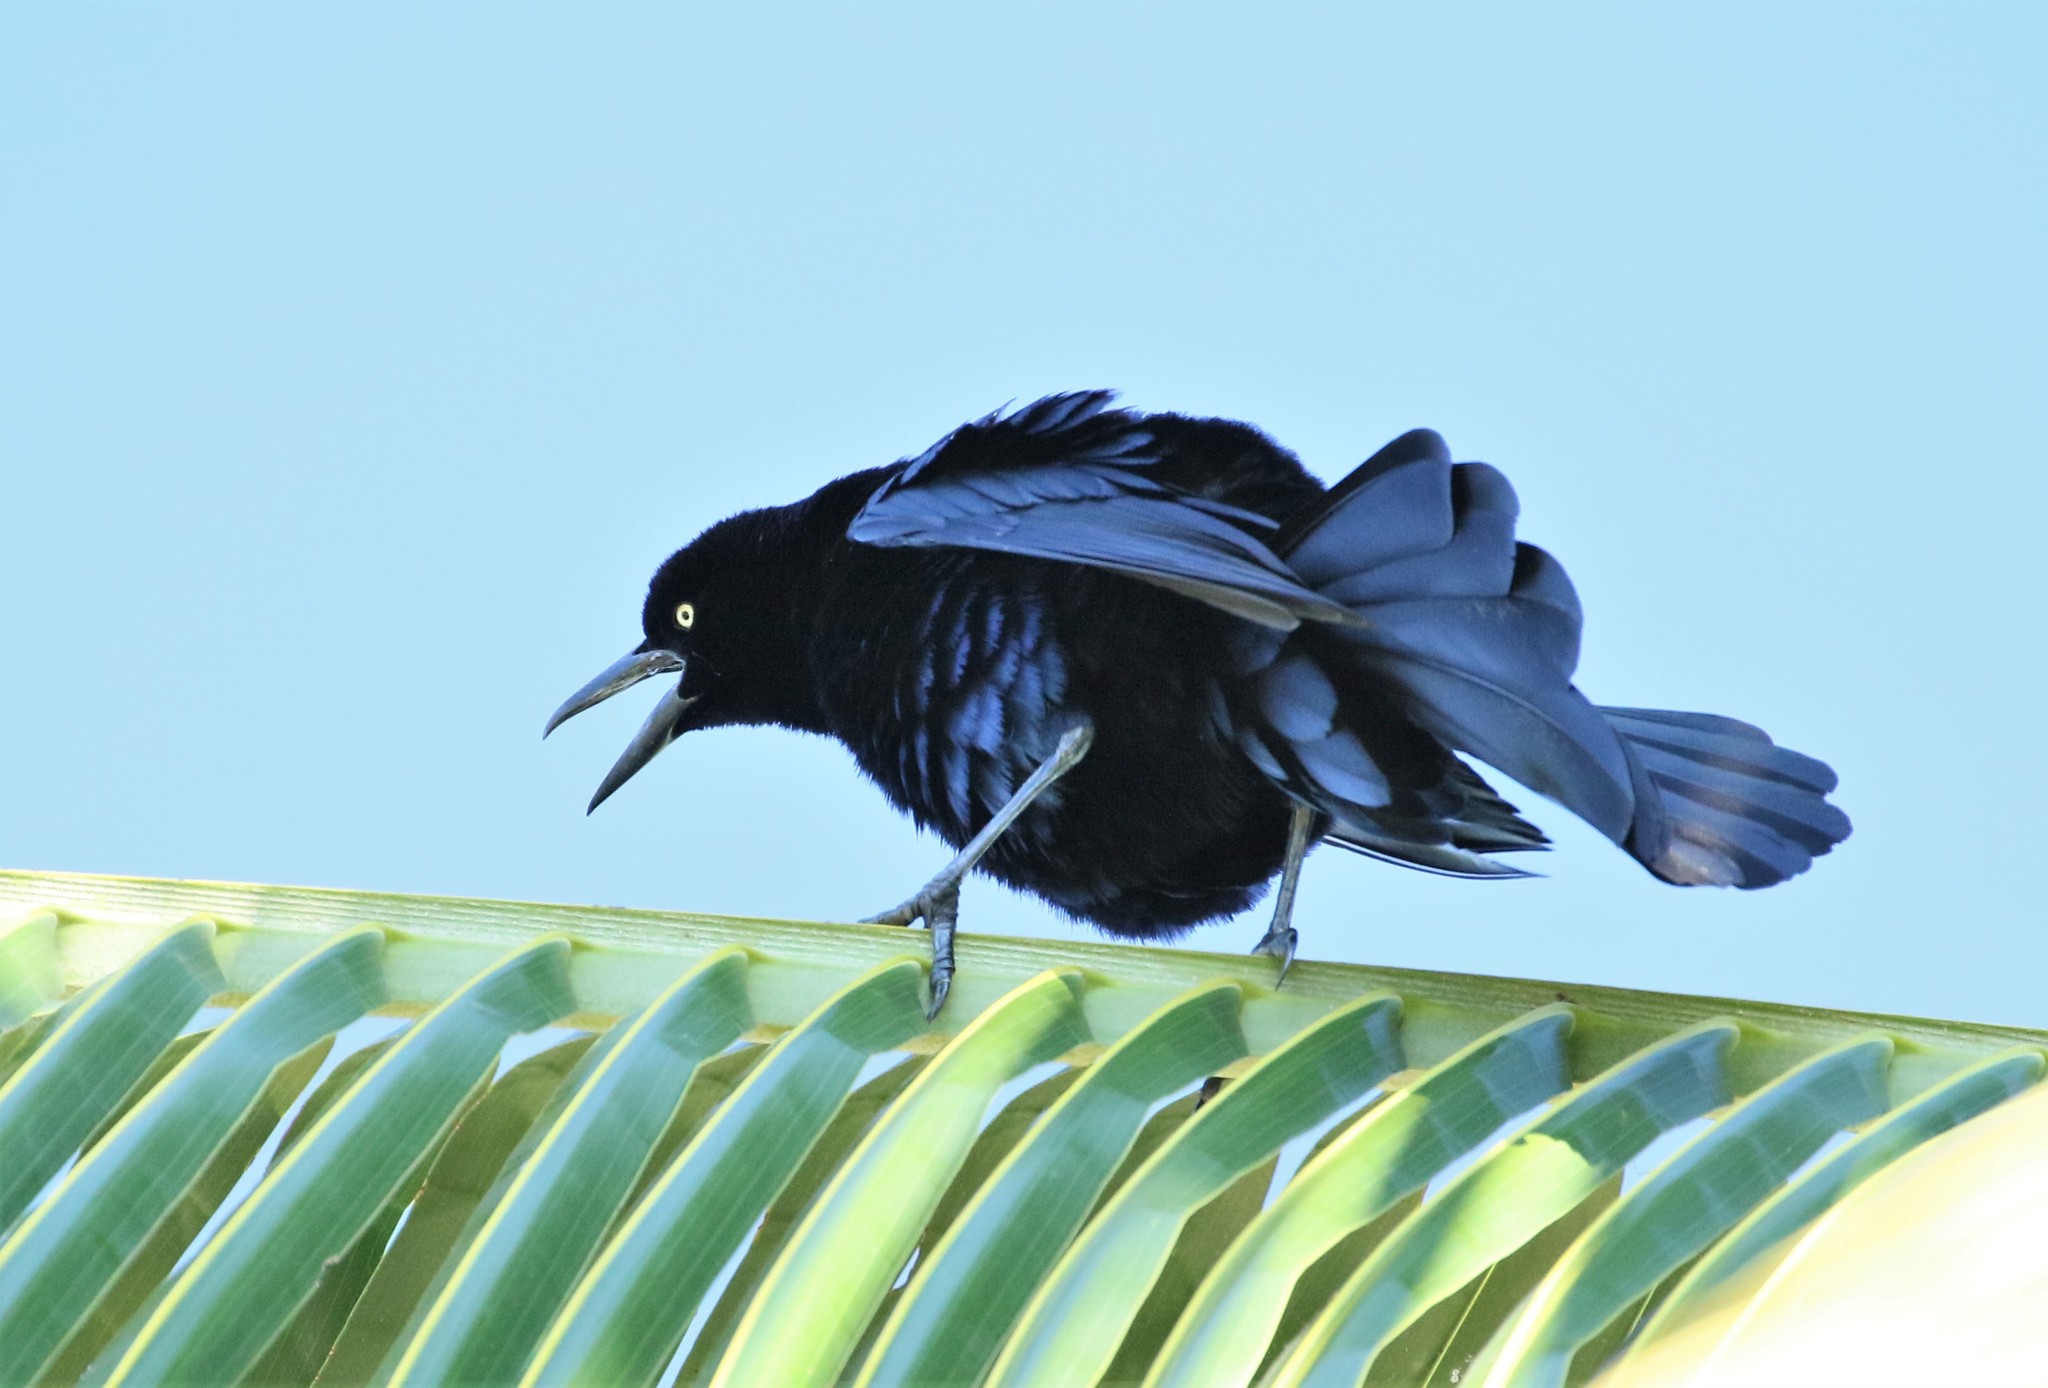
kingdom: Animalia
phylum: Chordata
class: Aves
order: Passeriformes
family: Icteridae
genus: Quiscalus
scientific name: Quiscalus mexicanus
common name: Great-tailed grackle
